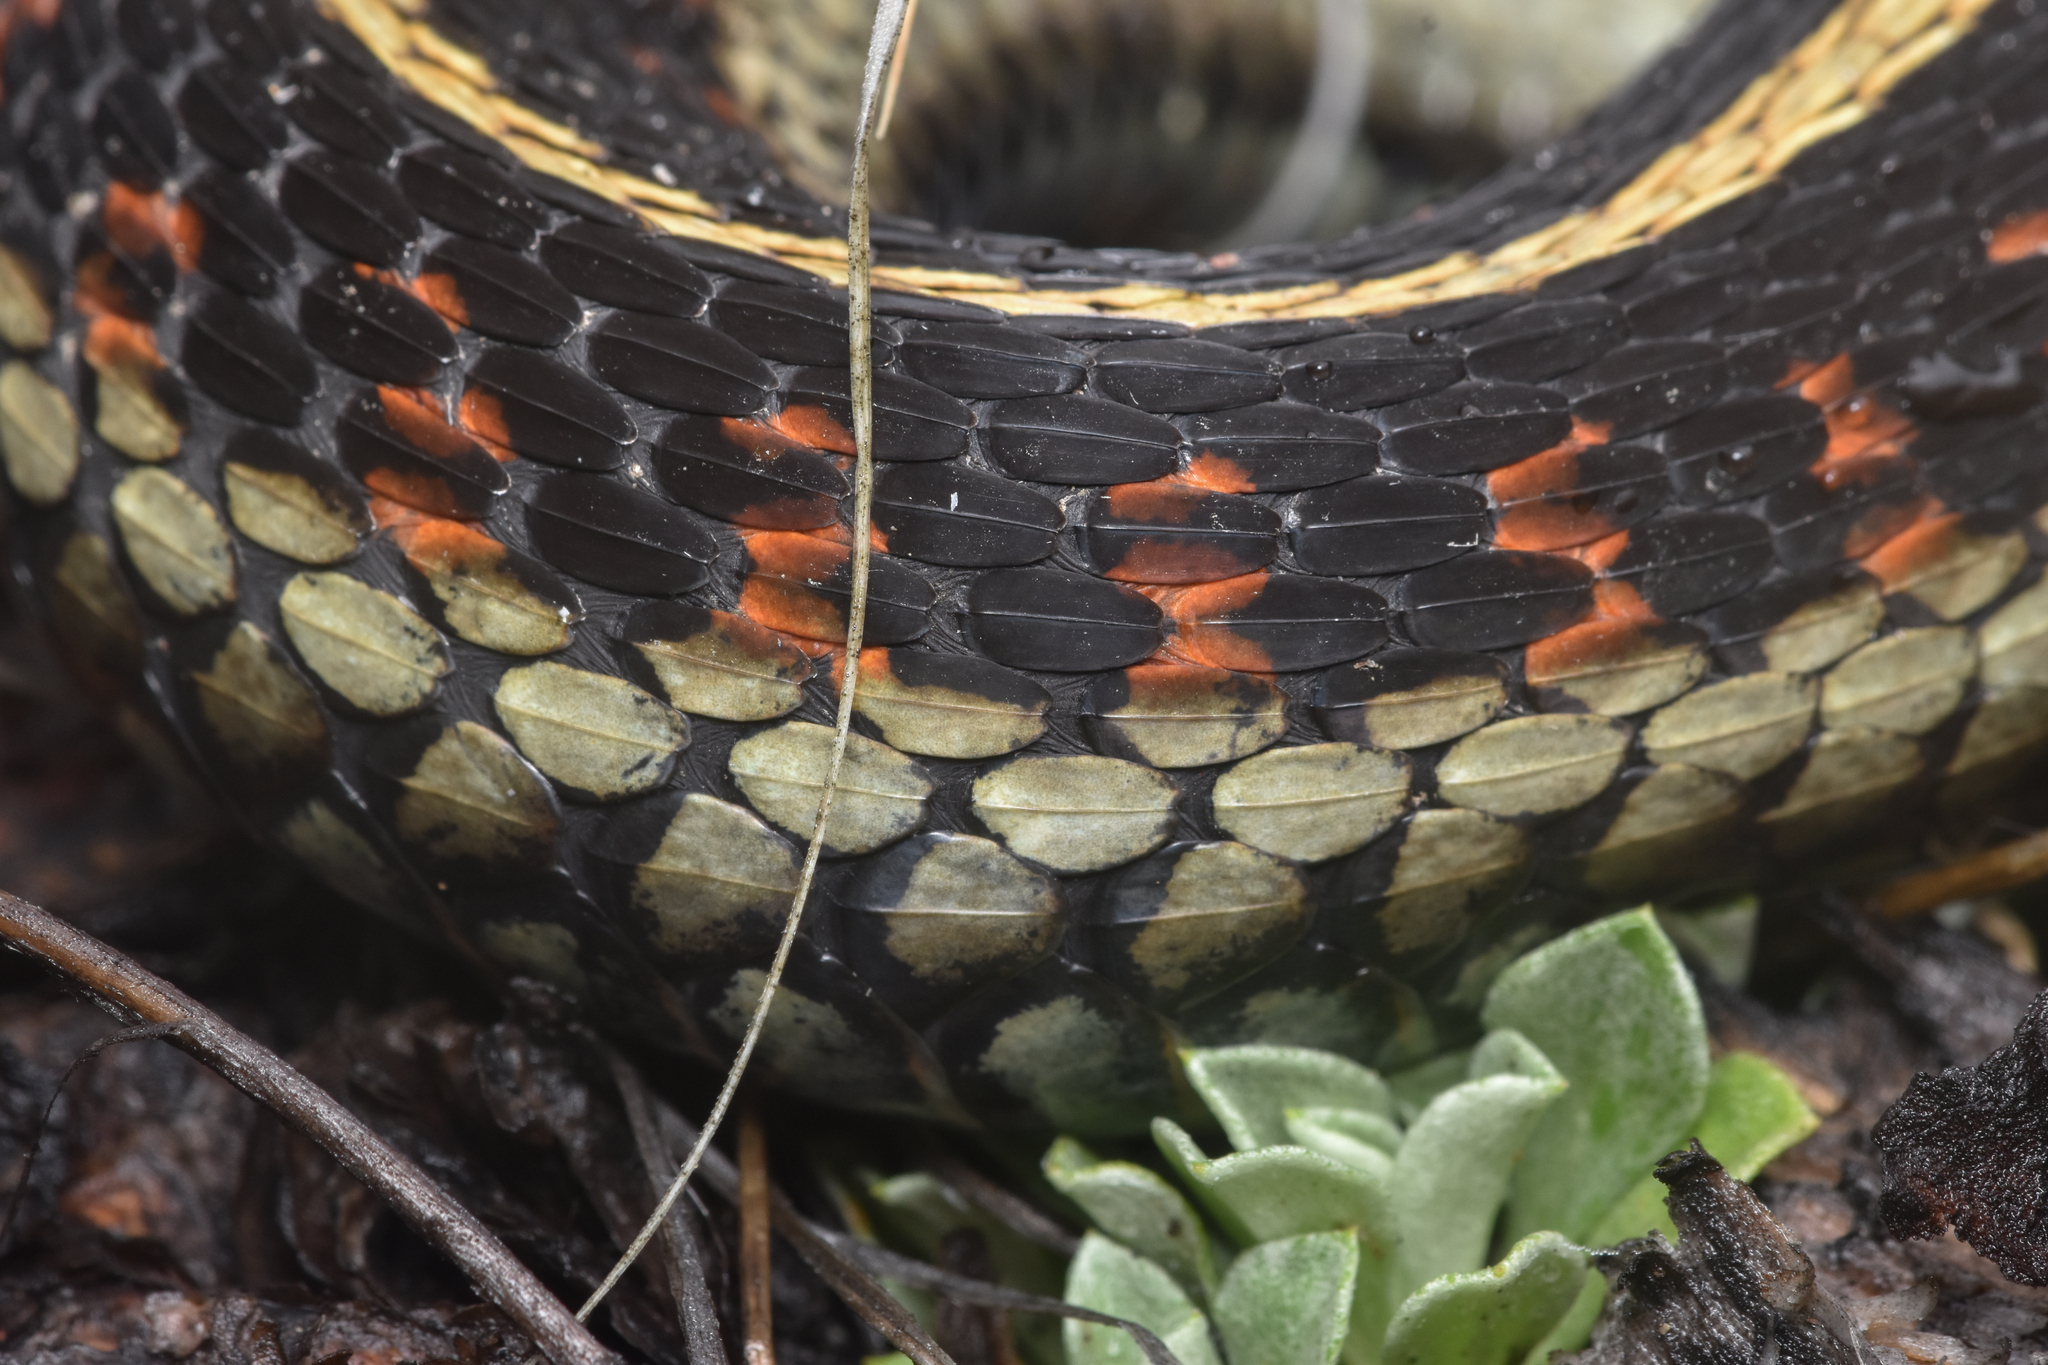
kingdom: Animalia
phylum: Chordata
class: Squamata
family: Colubridae
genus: Thamnophis
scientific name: Thamnophis sirtalis
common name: Common garter snake
